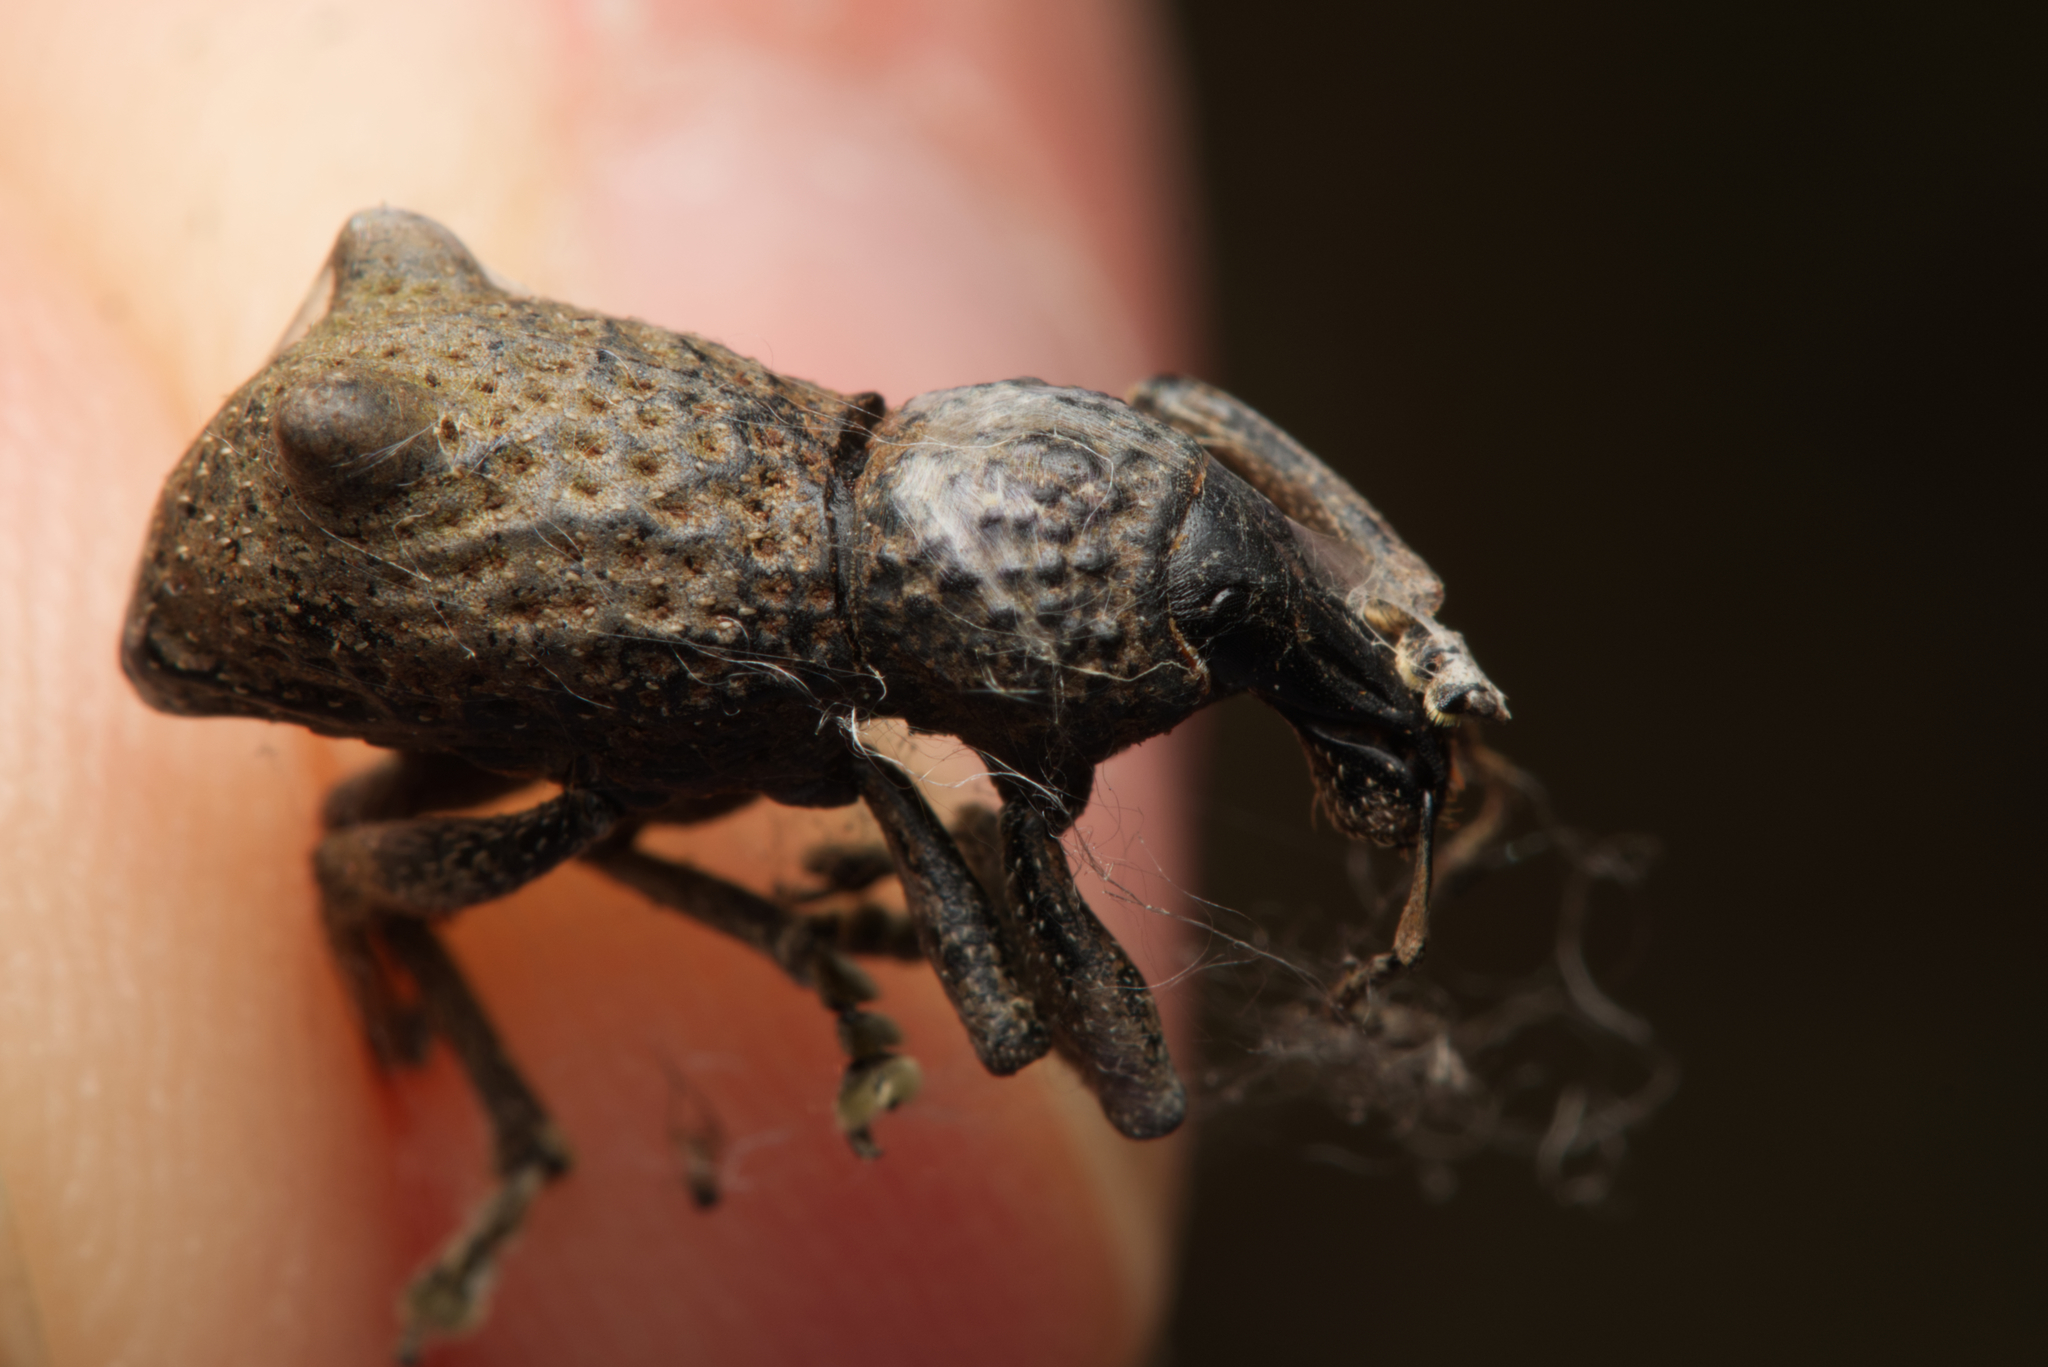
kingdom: Animalia
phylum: Arthropoda
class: Insecta
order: Coleoptera
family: Curculionidae
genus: Zymaus
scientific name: Zymaus binodosus
